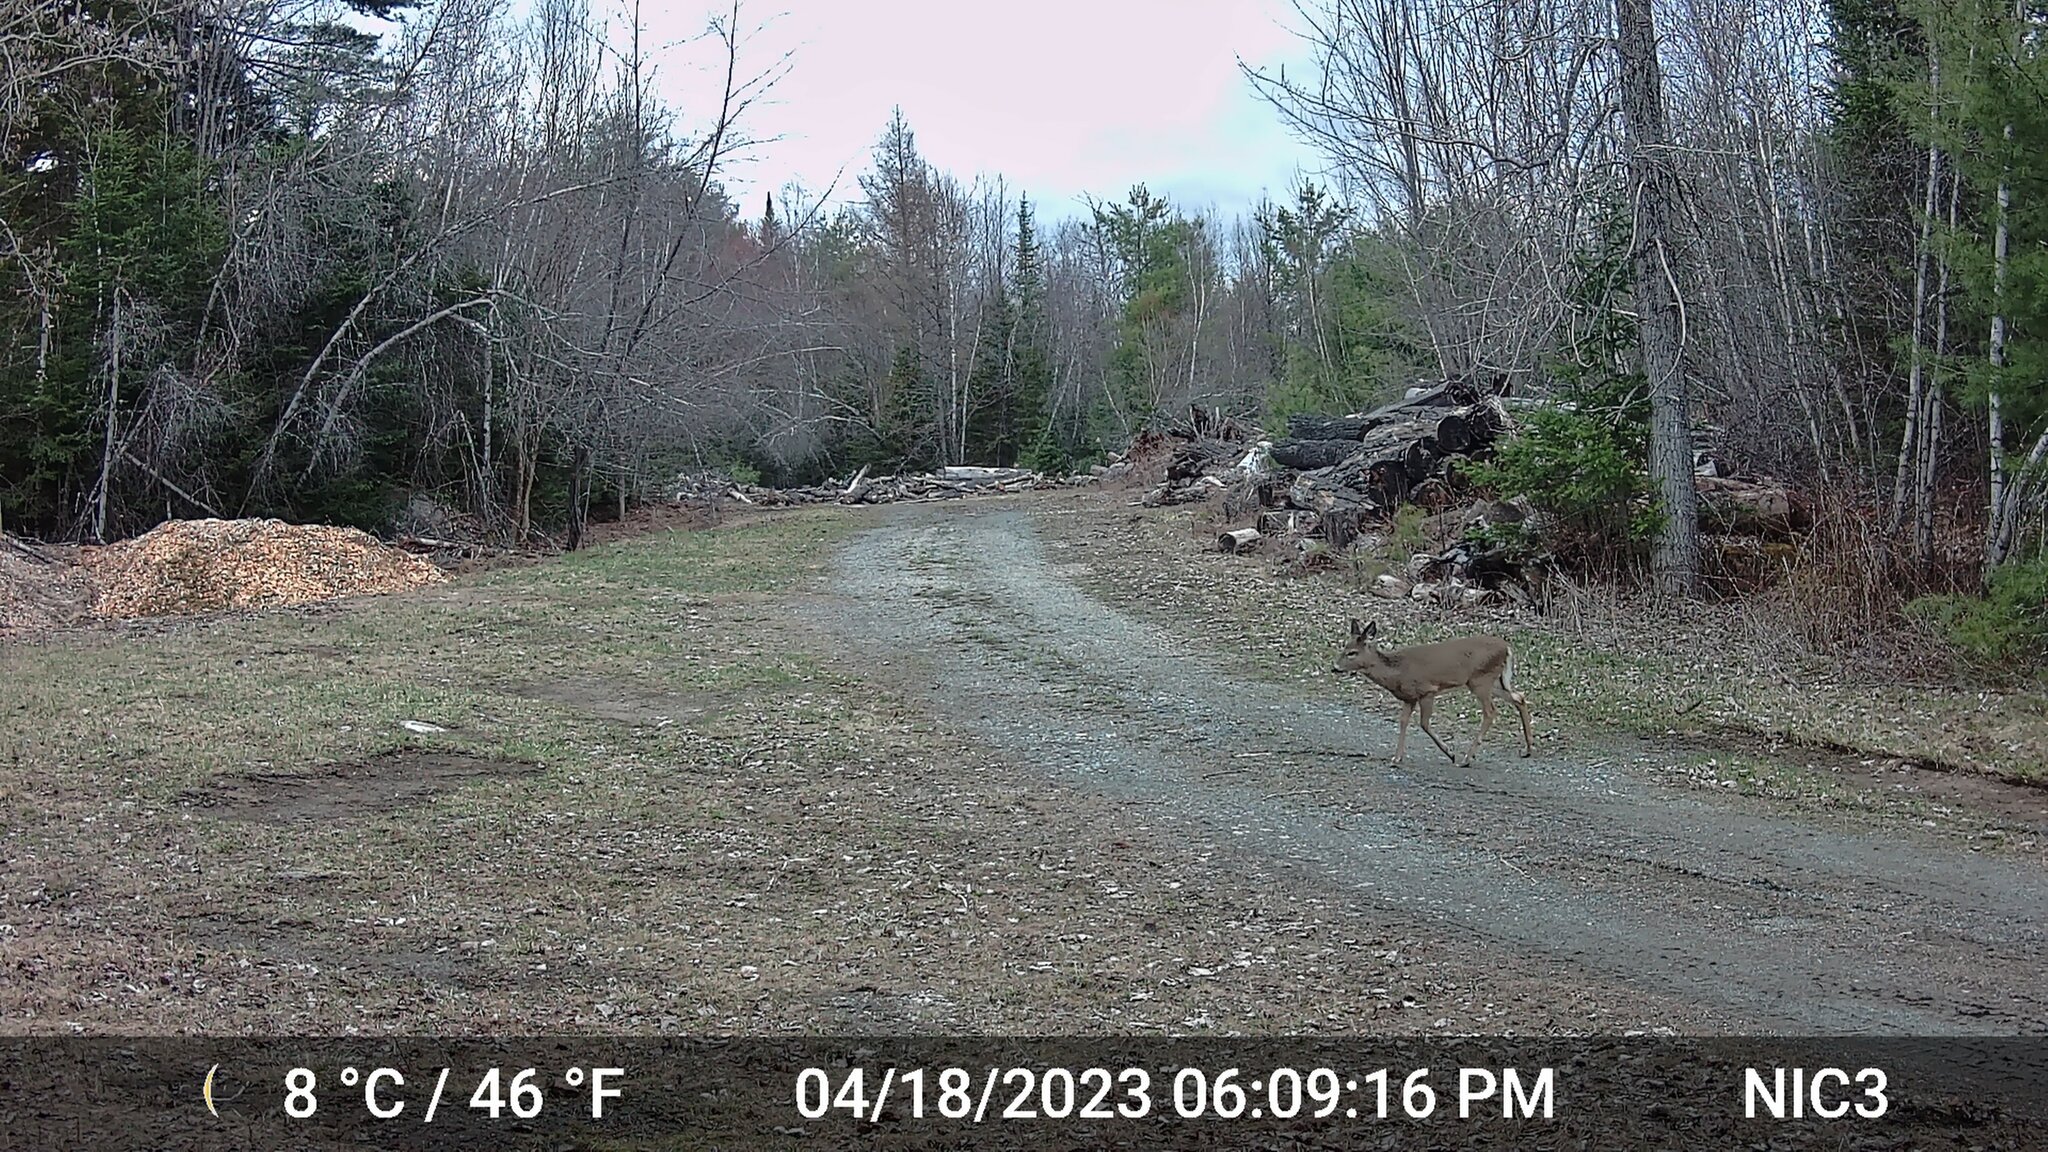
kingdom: Animalia
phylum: Chordata
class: Mammalia
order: Artiodactyla
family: Cervidae
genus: Odocoileus
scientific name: Odocoileus virginianus
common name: White-tailed deer
